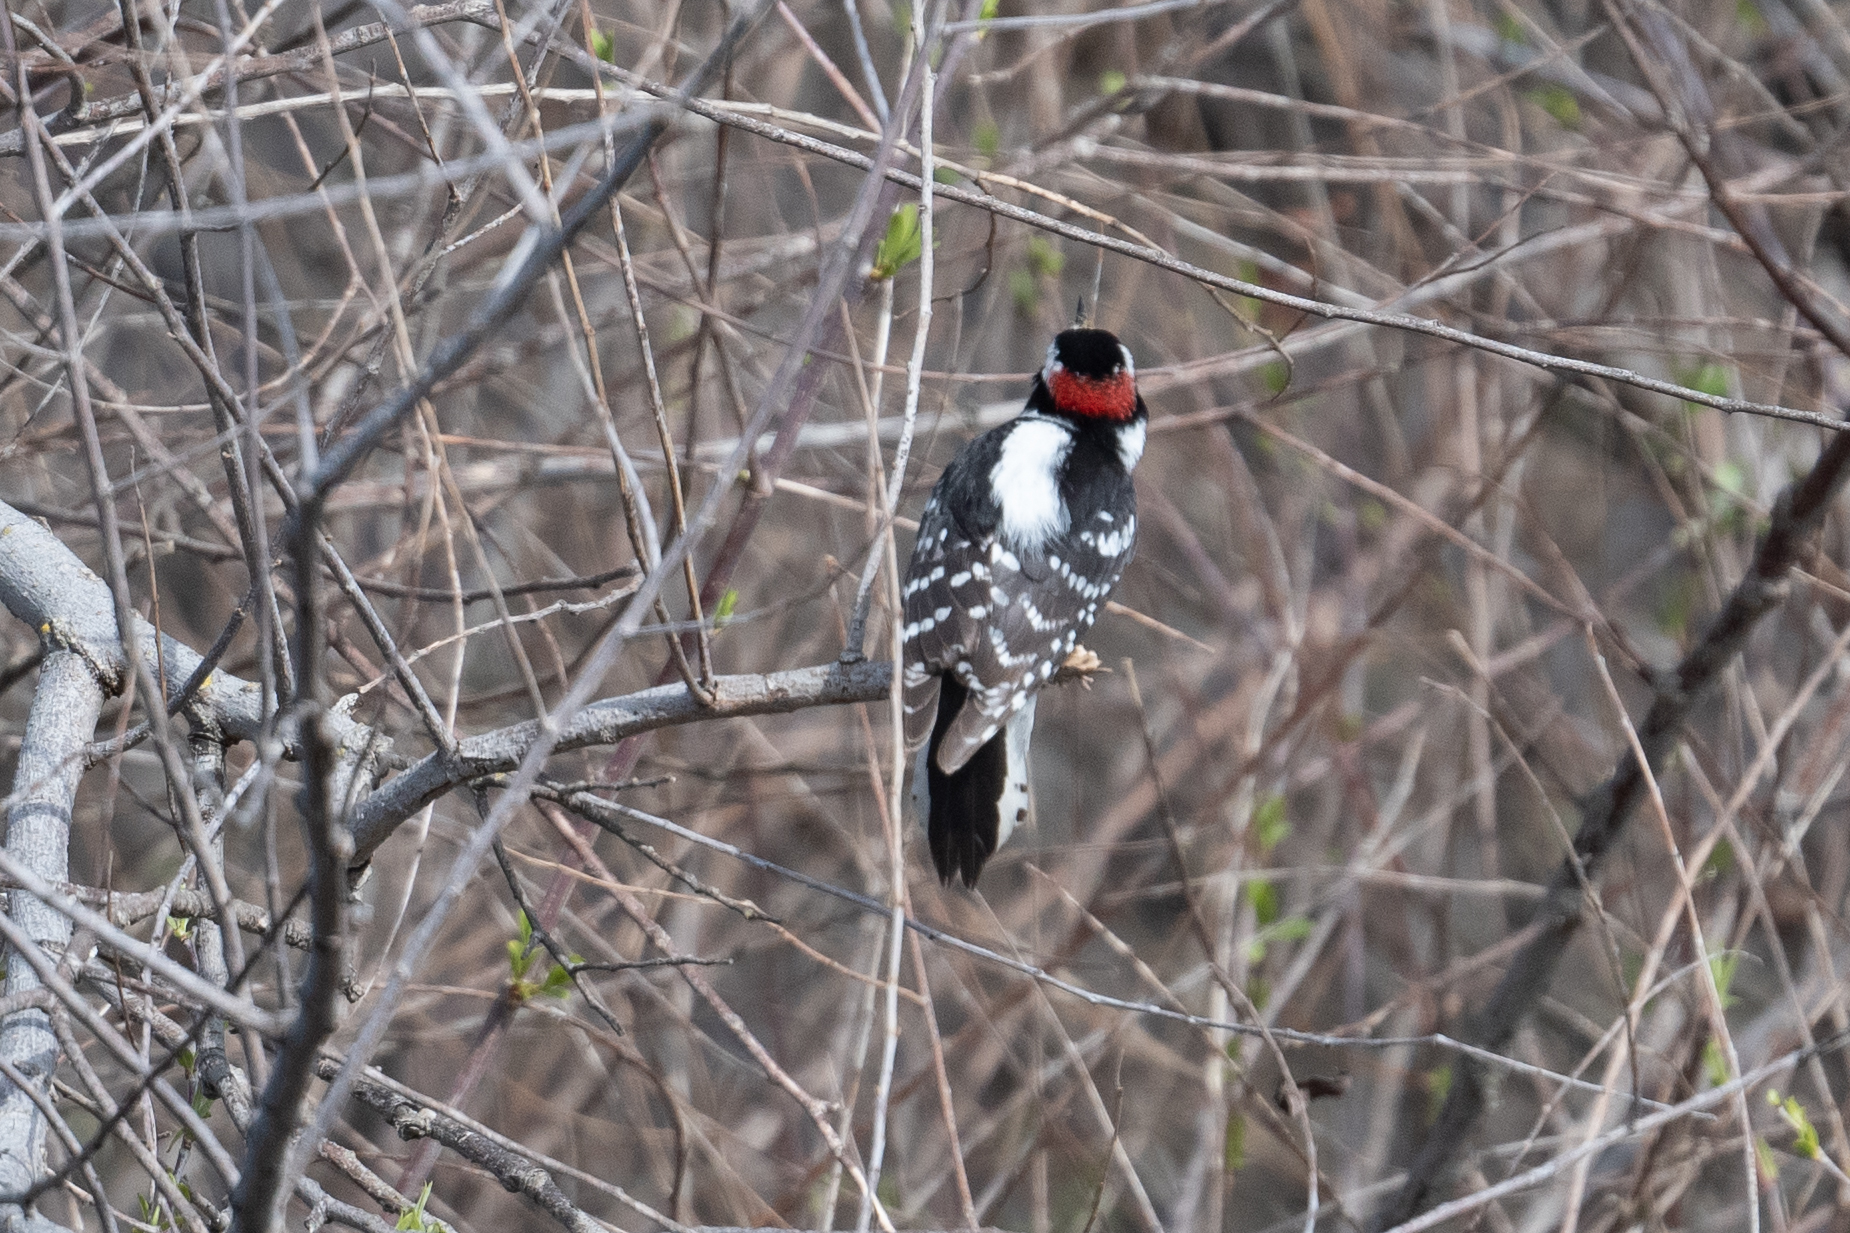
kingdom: Animalia
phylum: Chordata
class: Aves
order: Piciformes
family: Picidae
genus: Dryobates
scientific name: Dryobates pubescens
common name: Downy woodpecker
